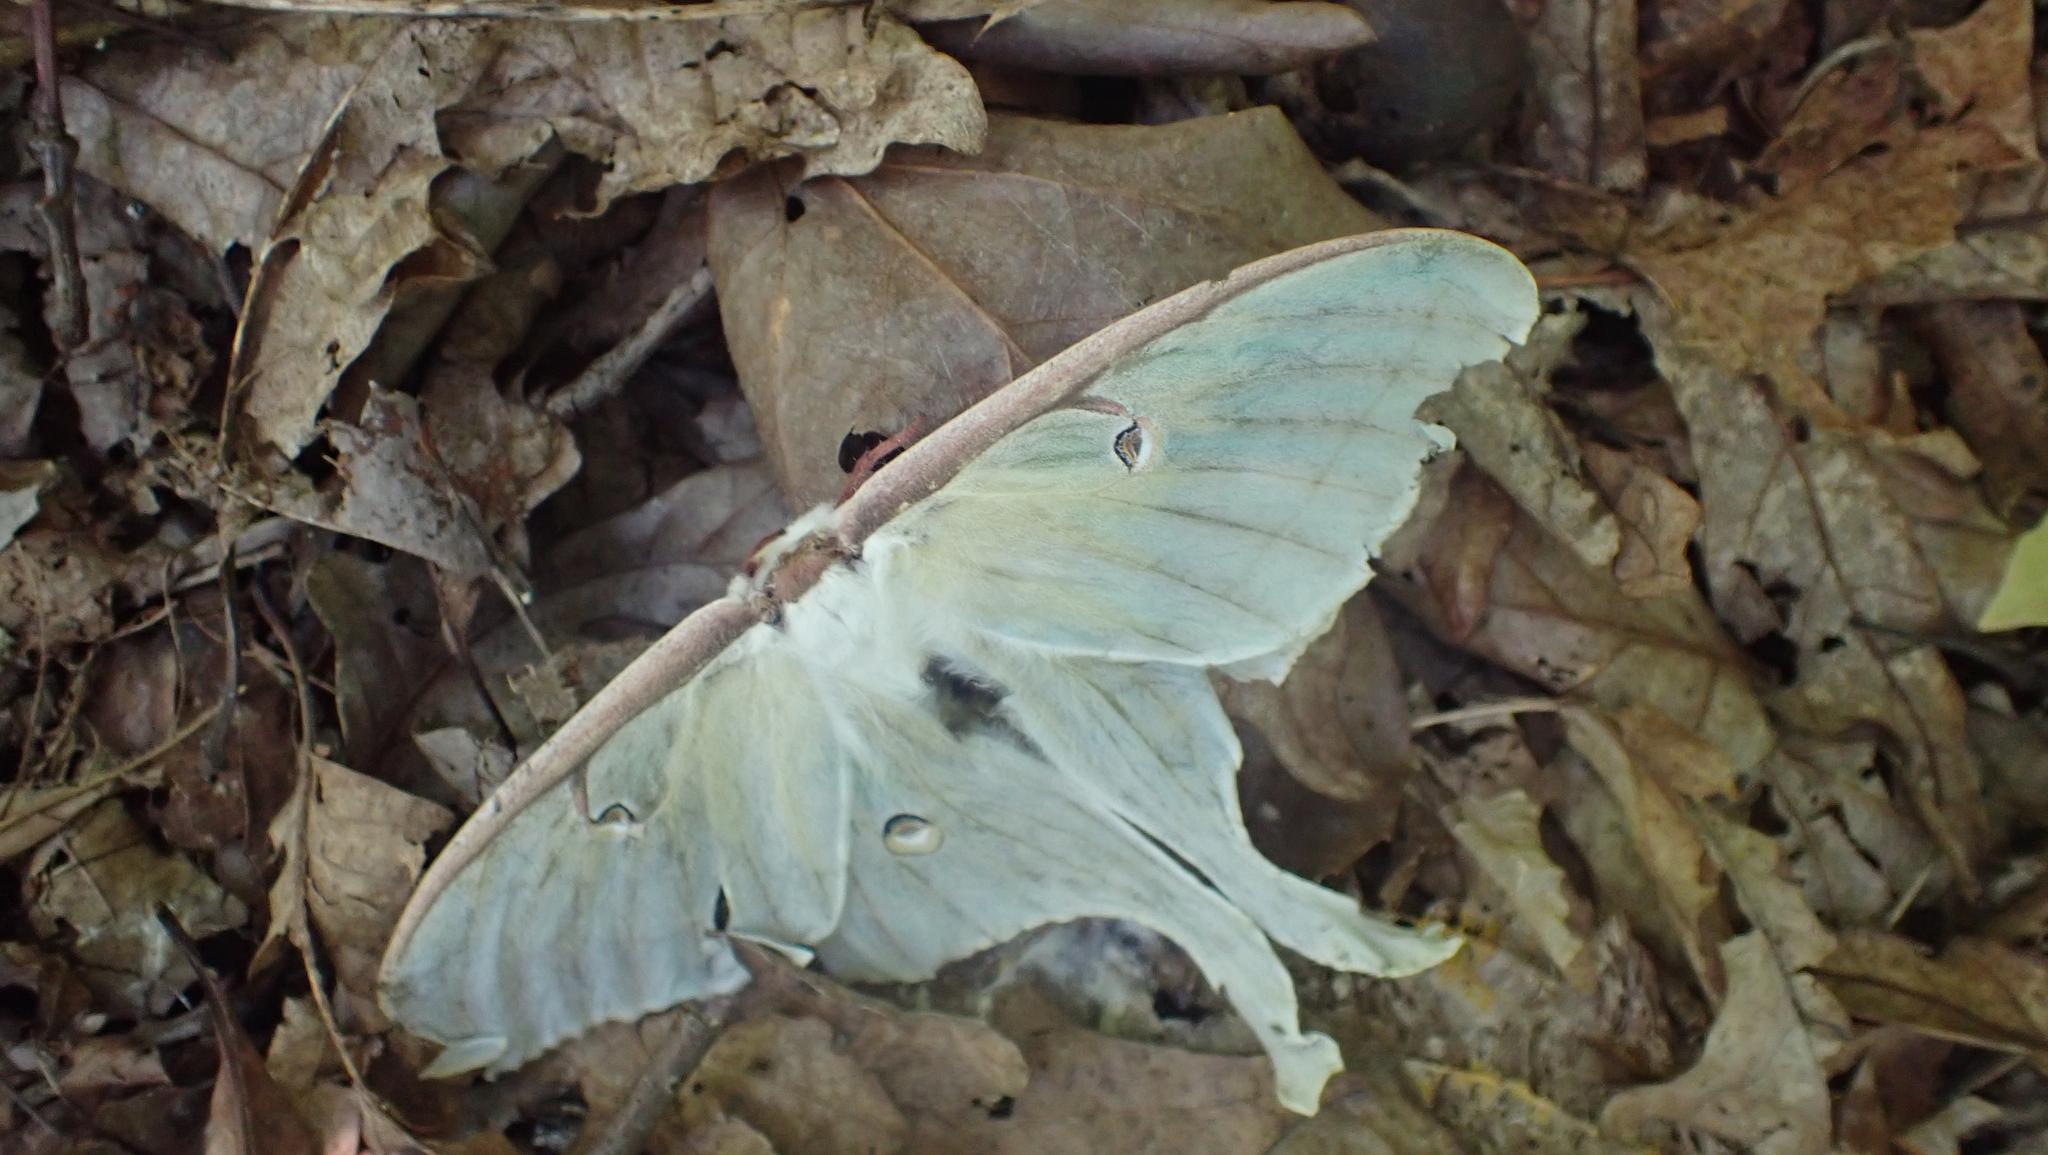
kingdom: Animalia
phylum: Arthropoda
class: Insecta
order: Lepidoptera
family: Saturniidae
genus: Actias
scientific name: Actias luna
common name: Luna moth
